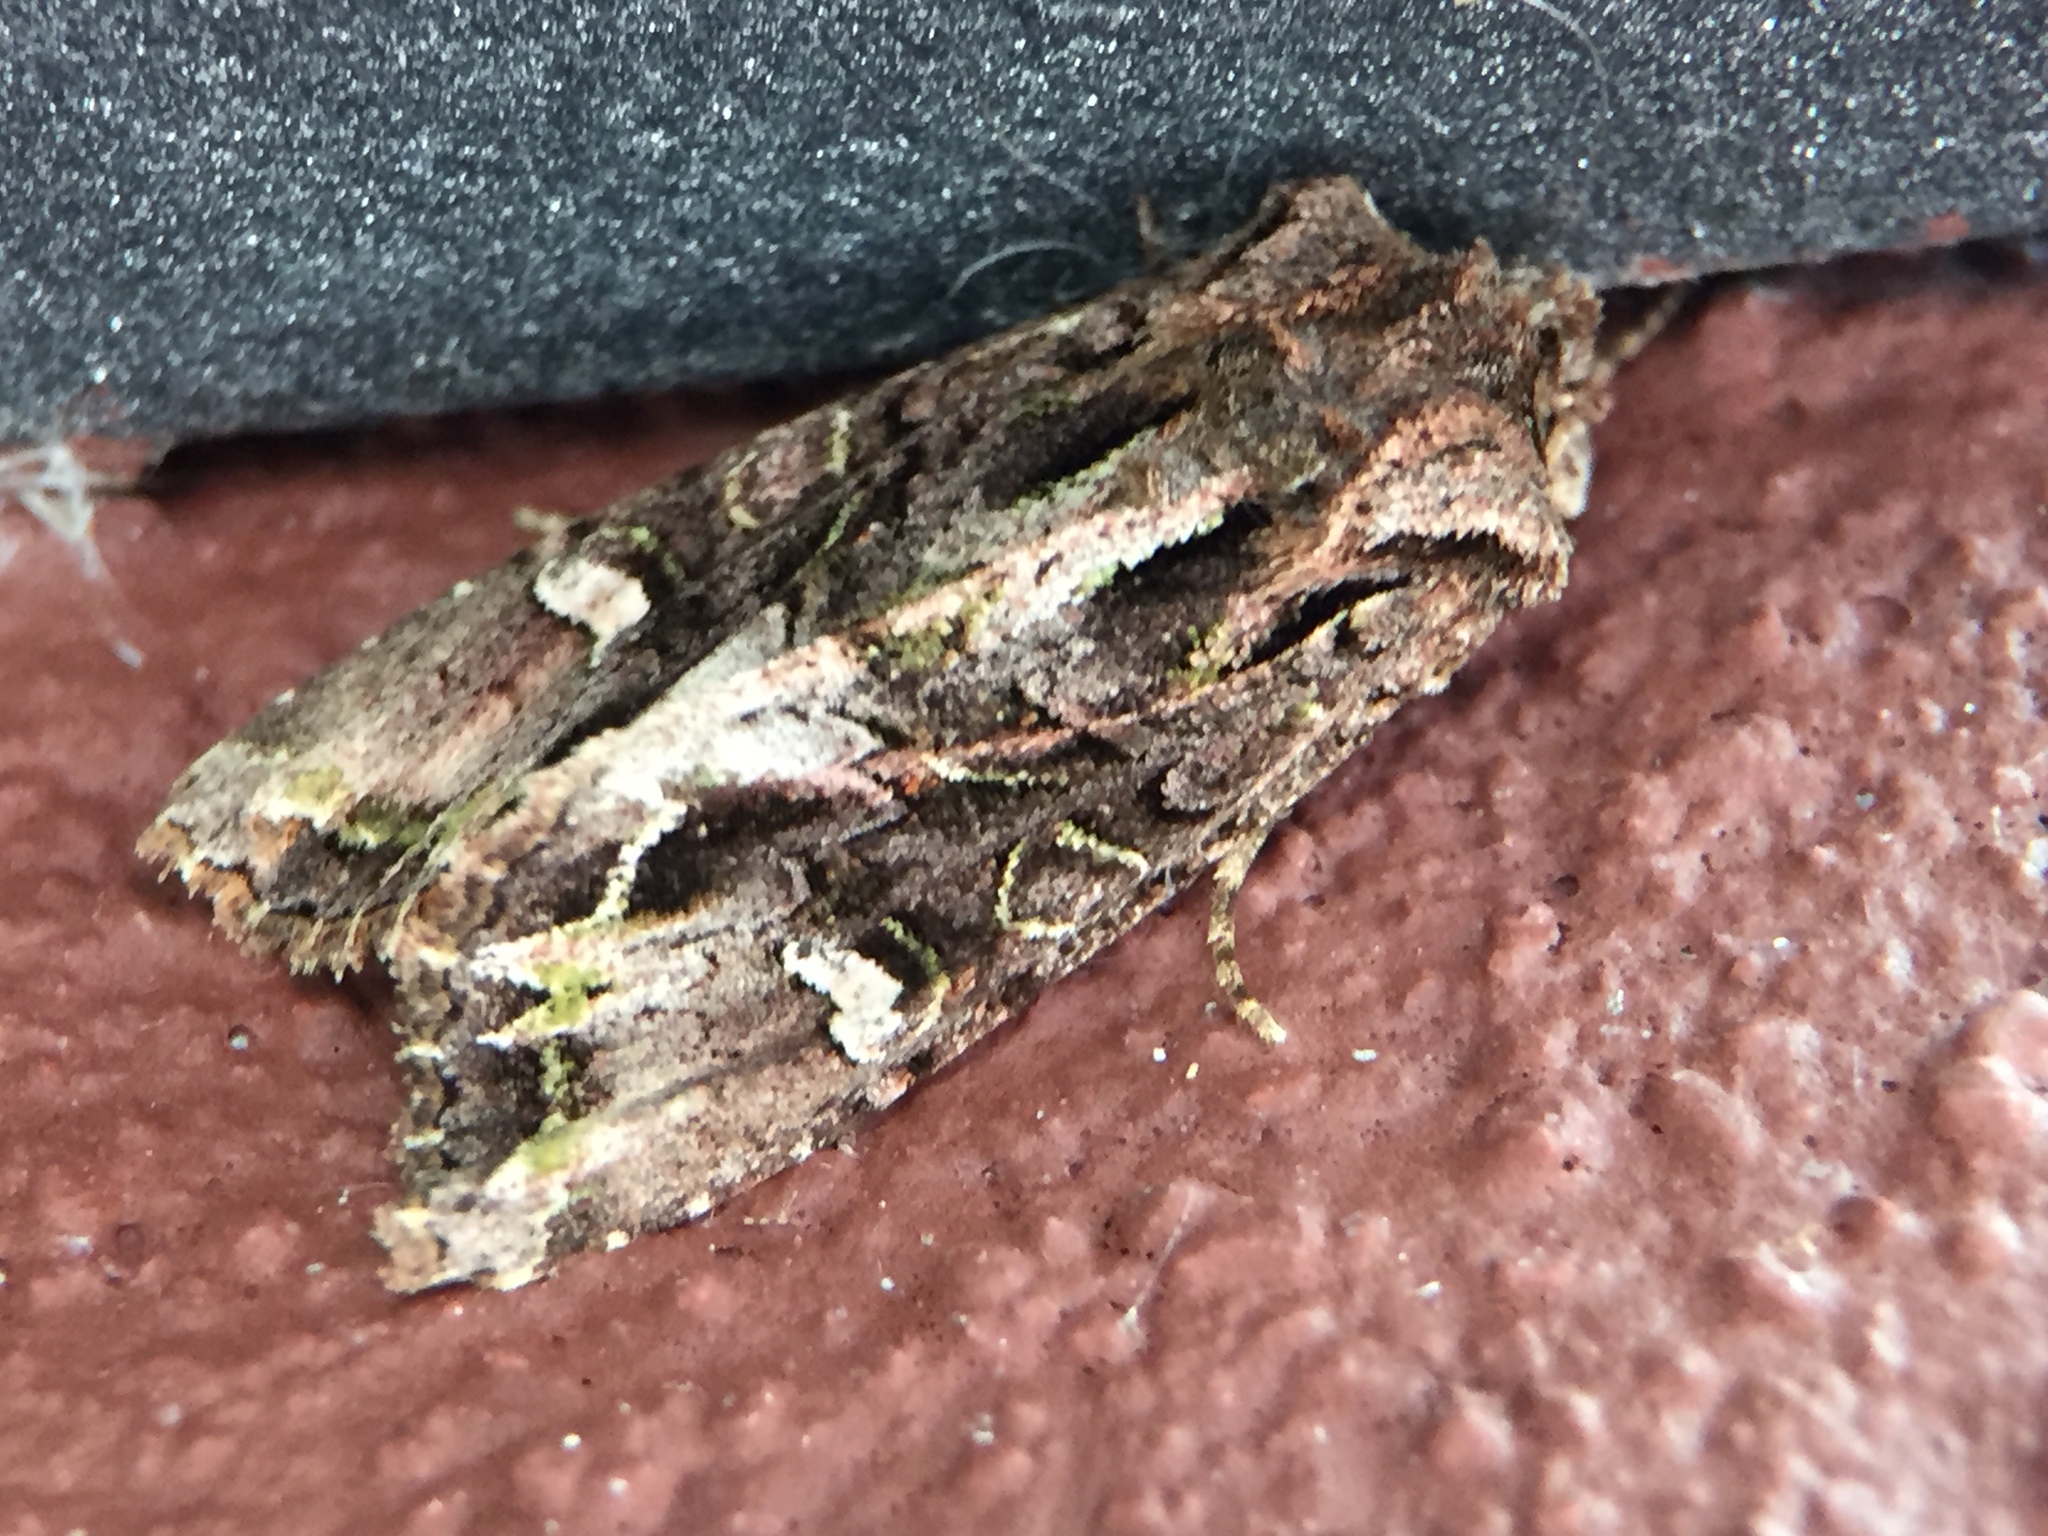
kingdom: Animalia
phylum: Arthropoda
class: Insecta
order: Lepidoptera
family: Noctuidae
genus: Ichneutica
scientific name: Ichneutica insignis
